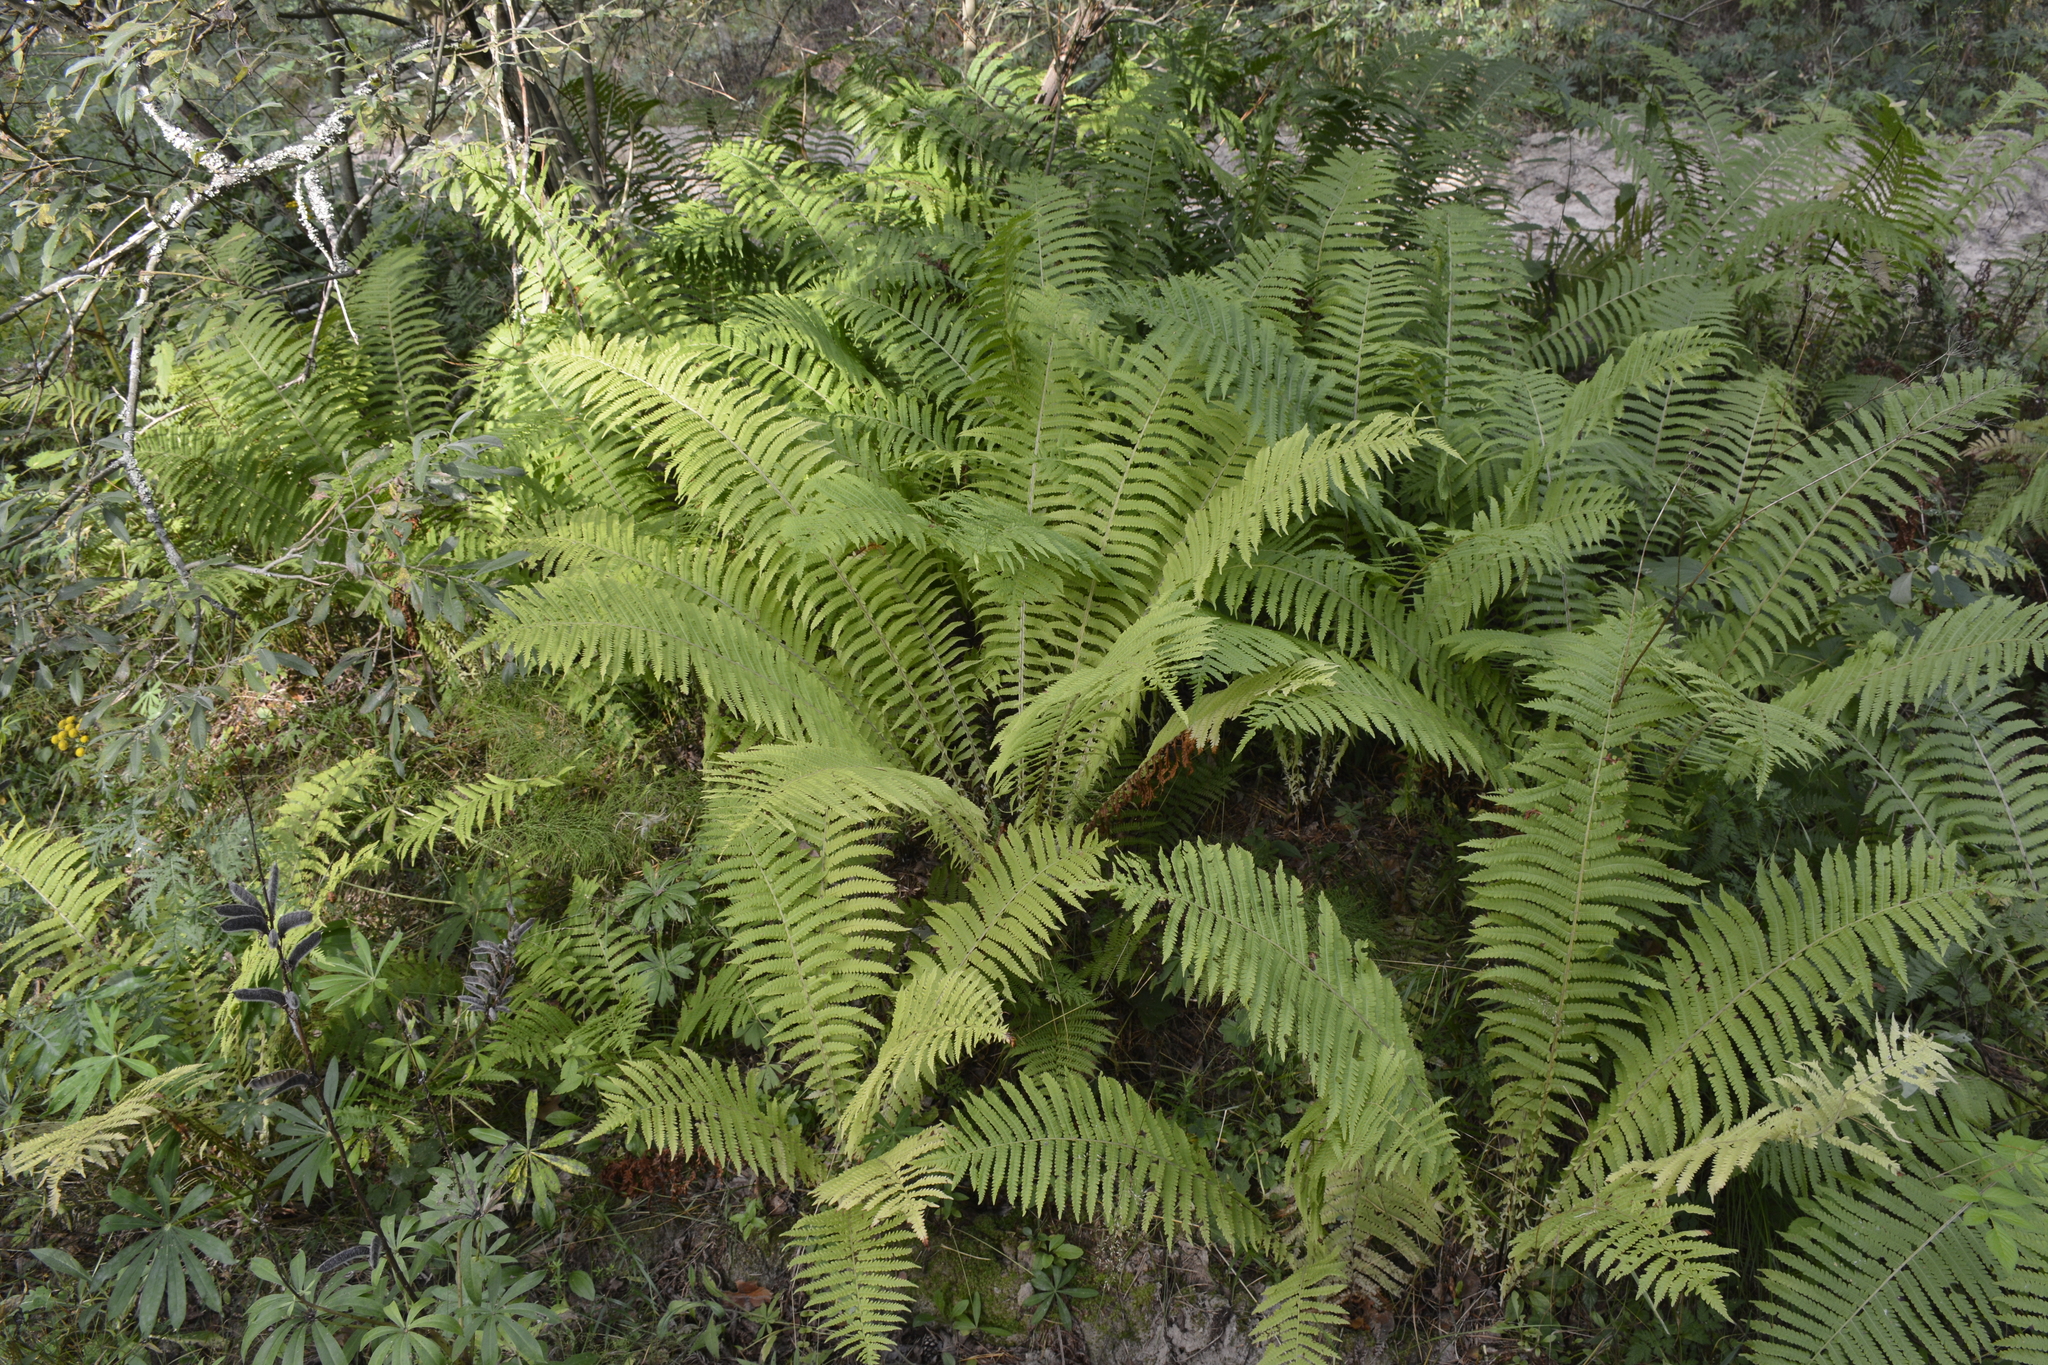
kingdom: Plantae
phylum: Tracheophyta
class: Polypodiopsida
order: Polypodiales
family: Onocleaceae
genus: Matteuccia
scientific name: Matteuccia struthiopteris
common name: Ostrich fern
